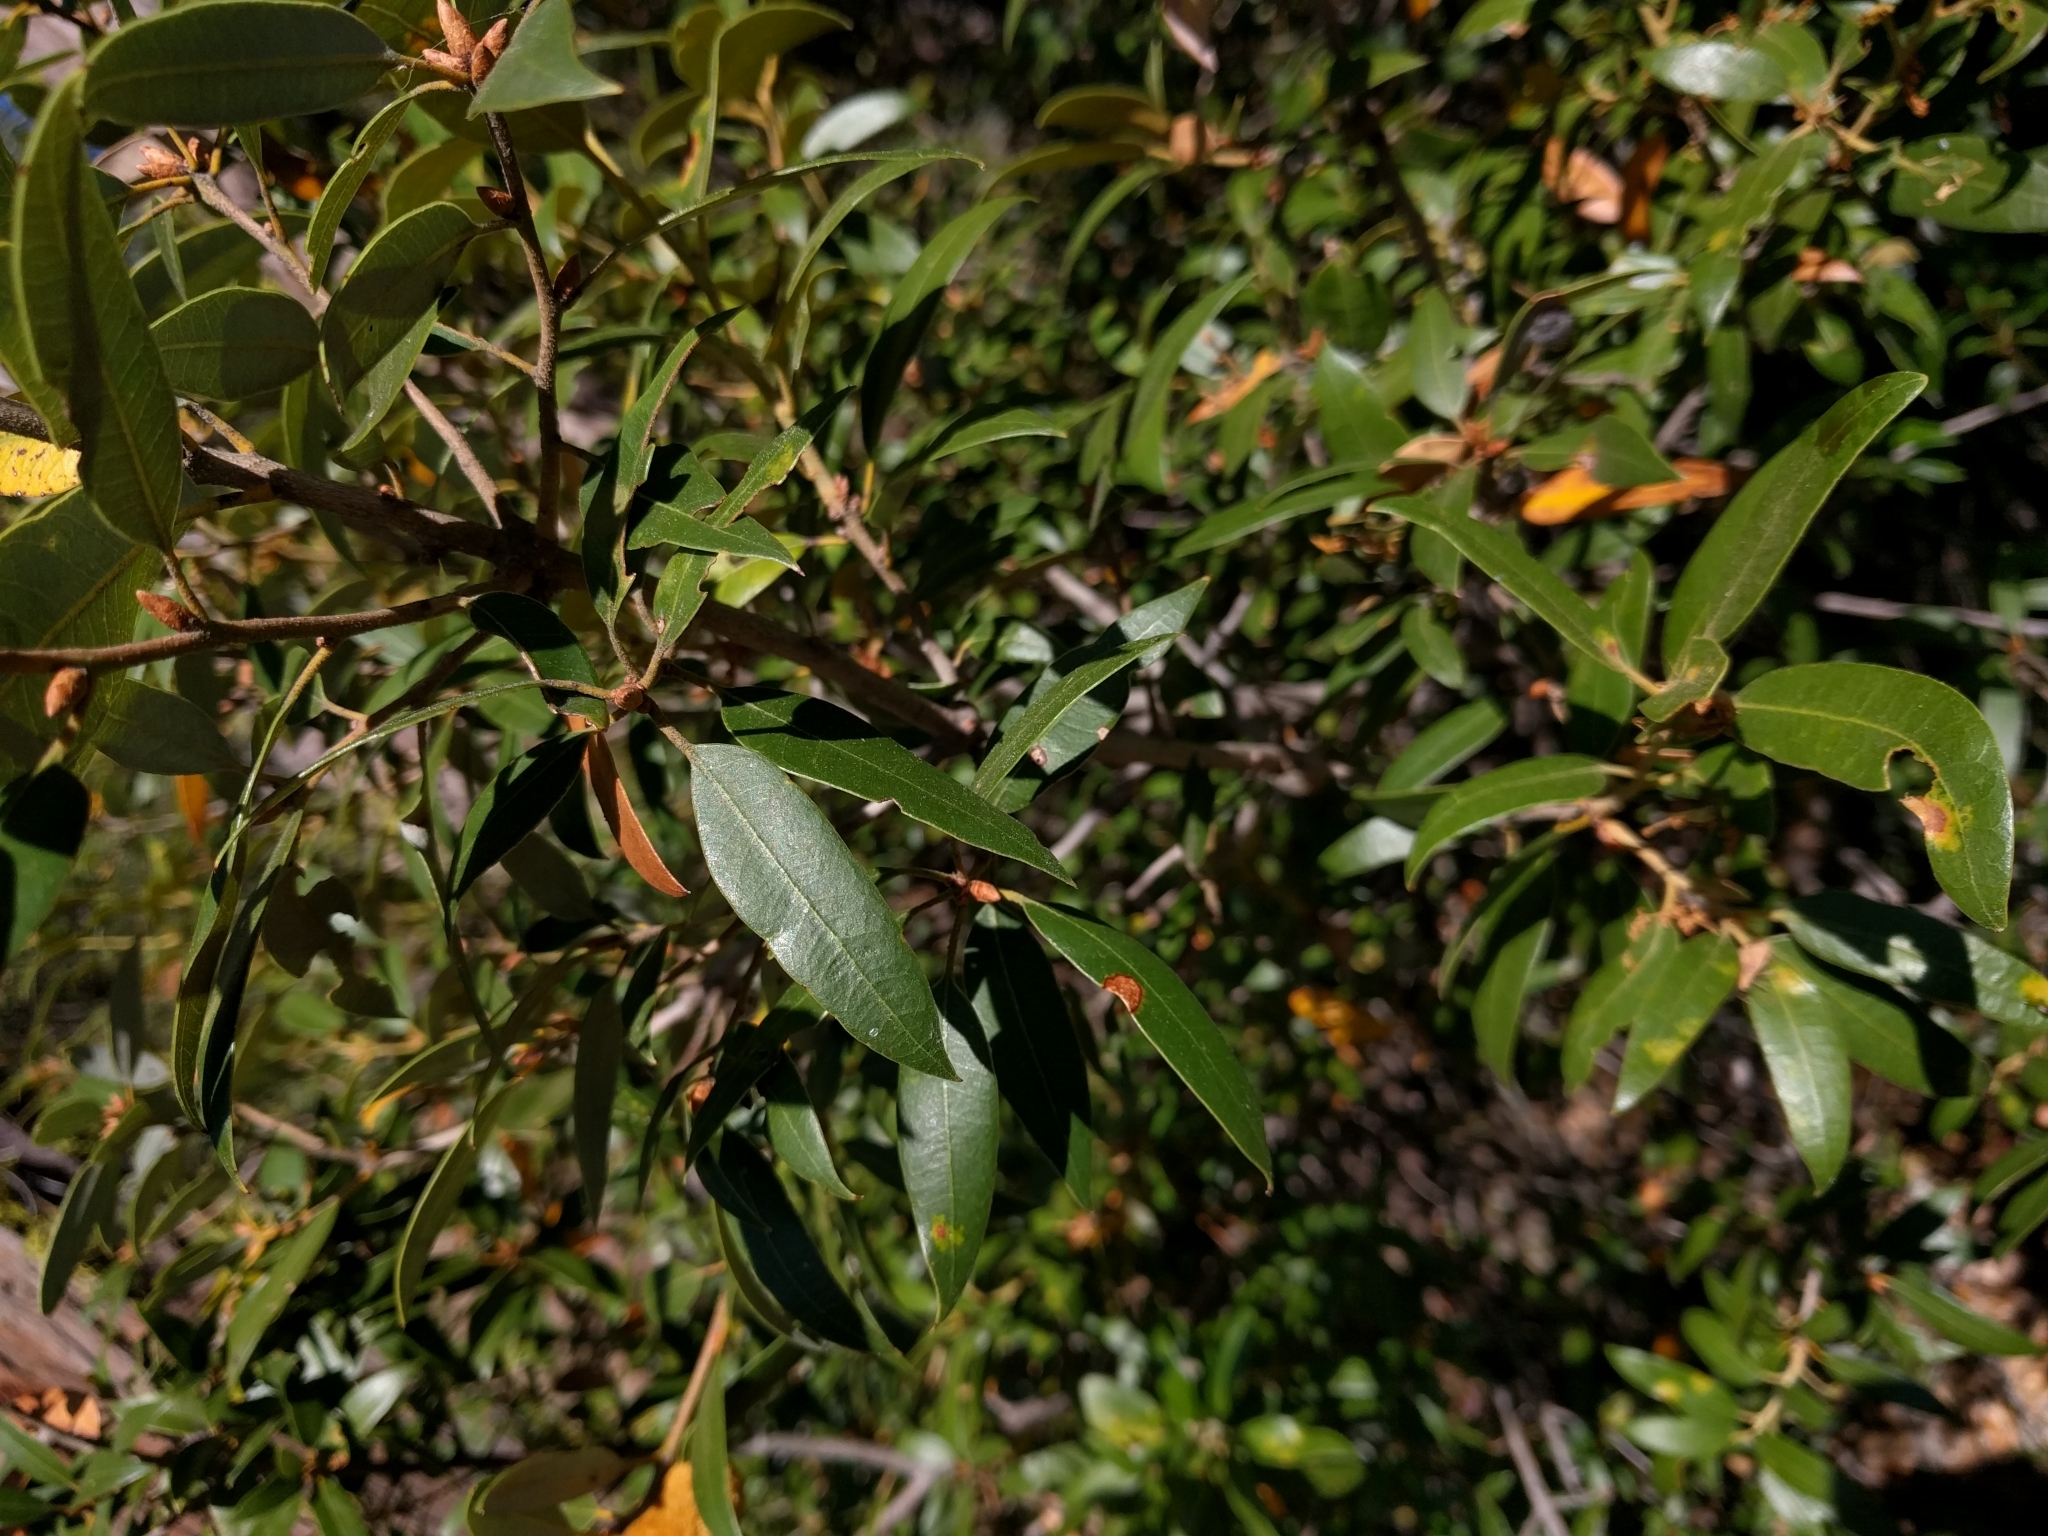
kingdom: Plantae
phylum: Tracheophyta
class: Magnoliopsida
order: Fagales
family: Fagaceae
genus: Quercus
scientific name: Quercus chrysolepis
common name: Canyon live oak
